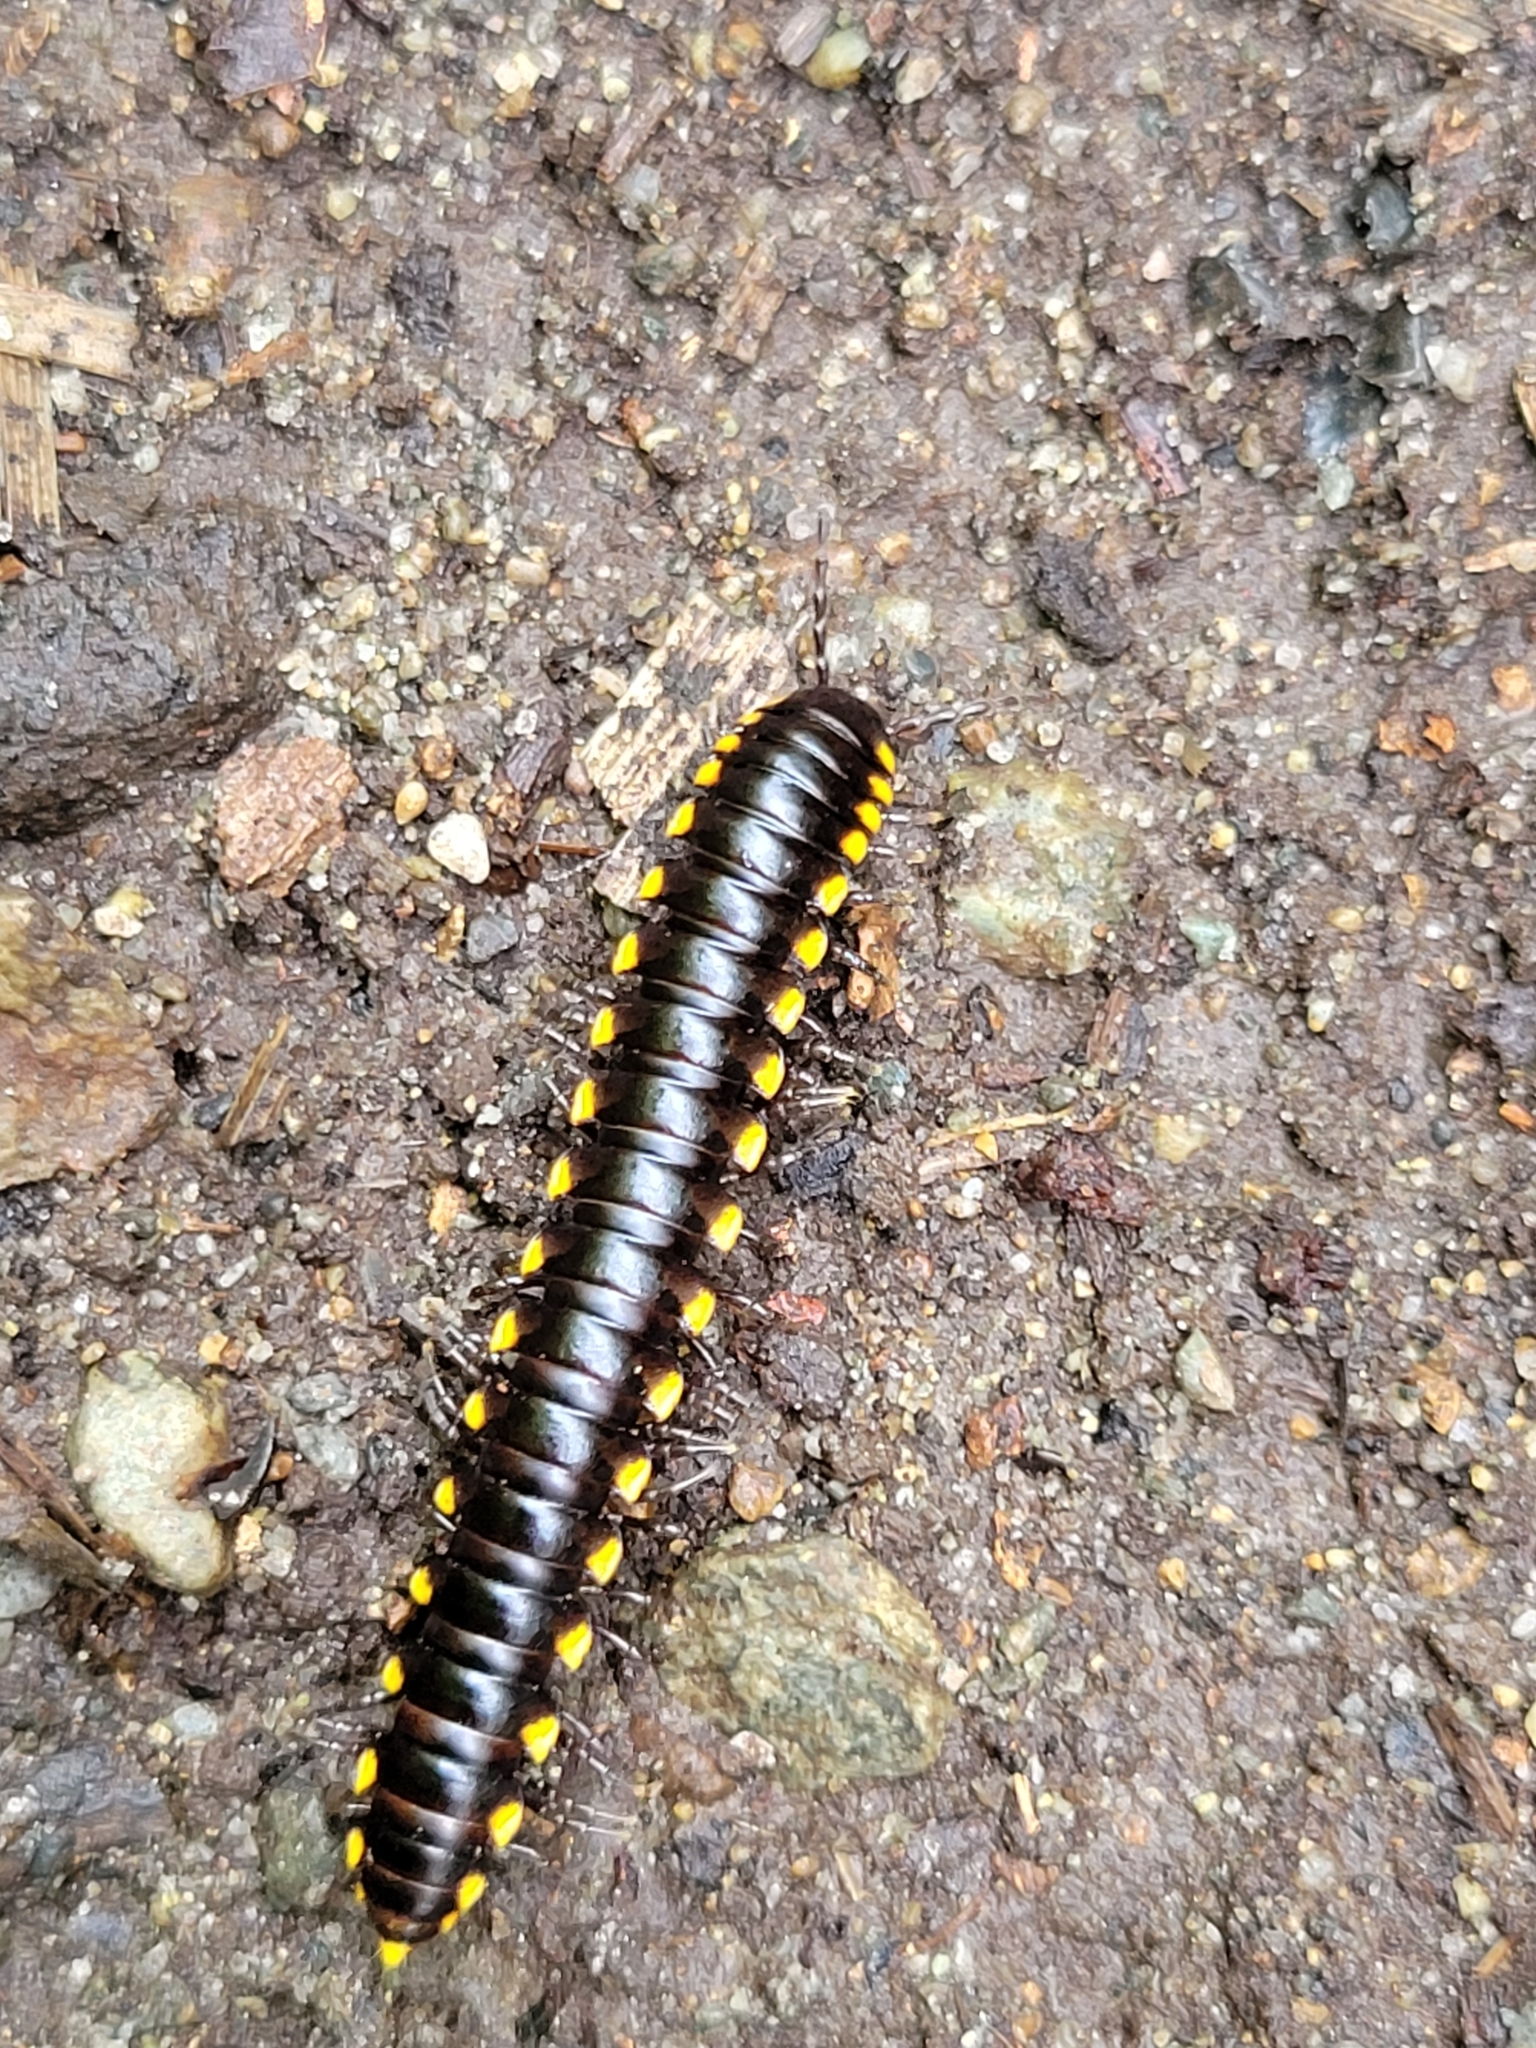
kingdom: Animalia
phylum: Arthropoda
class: Diplopoda
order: Polydesmida
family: Xystodesmidae
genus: Harpaphe
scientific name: Harpaphe haydeniana
